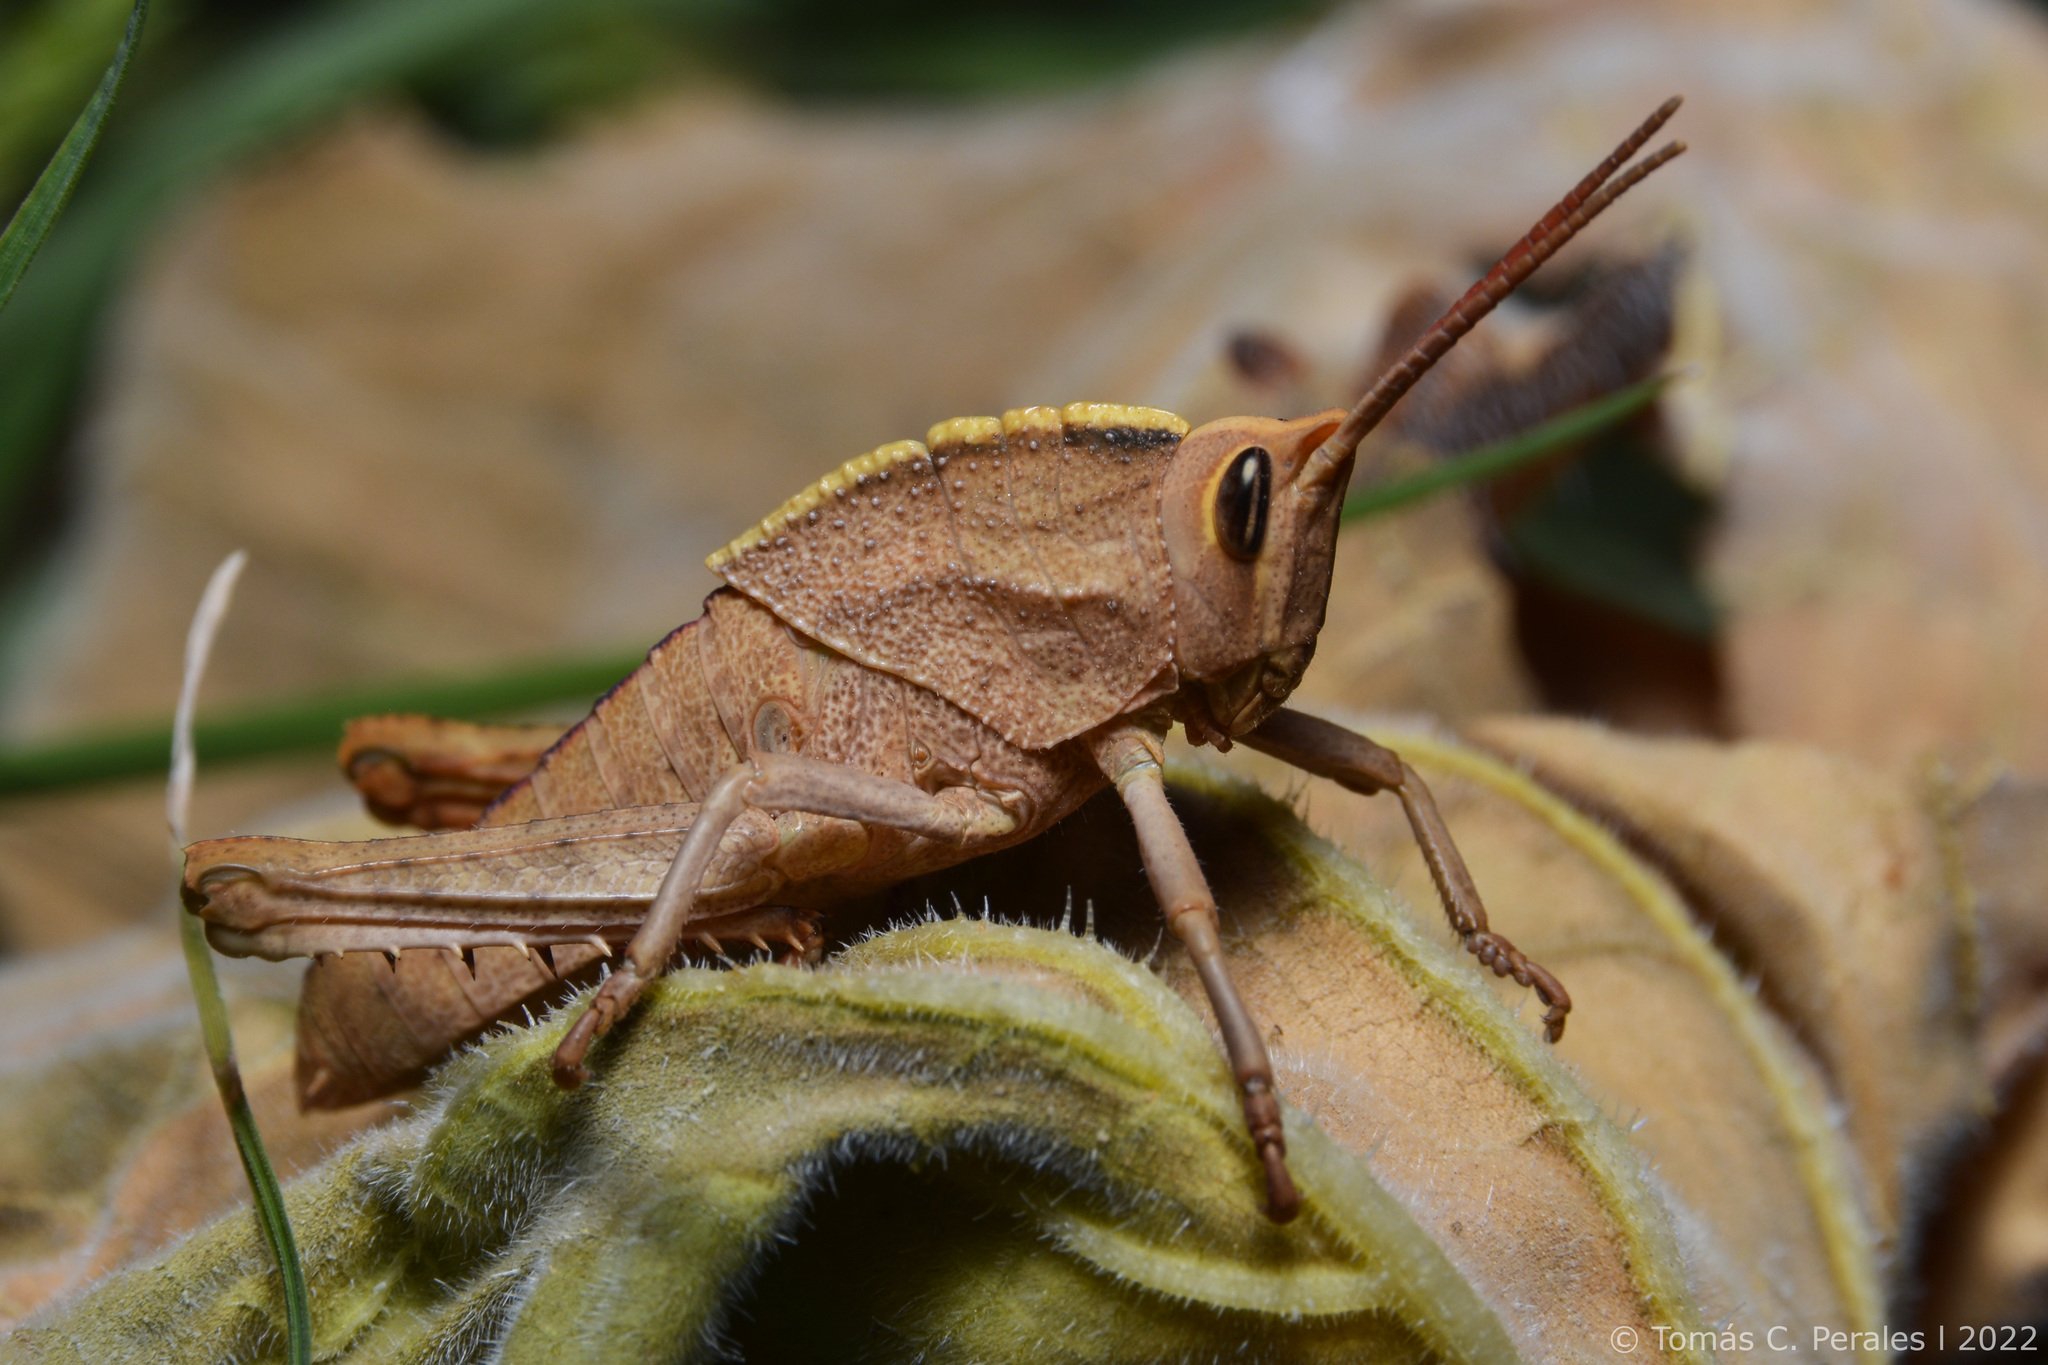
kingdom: Animalia
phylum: Arthropoda
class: Insecta
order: Orthoptera
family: Romaleidae
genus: Staleochlora
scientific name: Staleochlora viridicata
